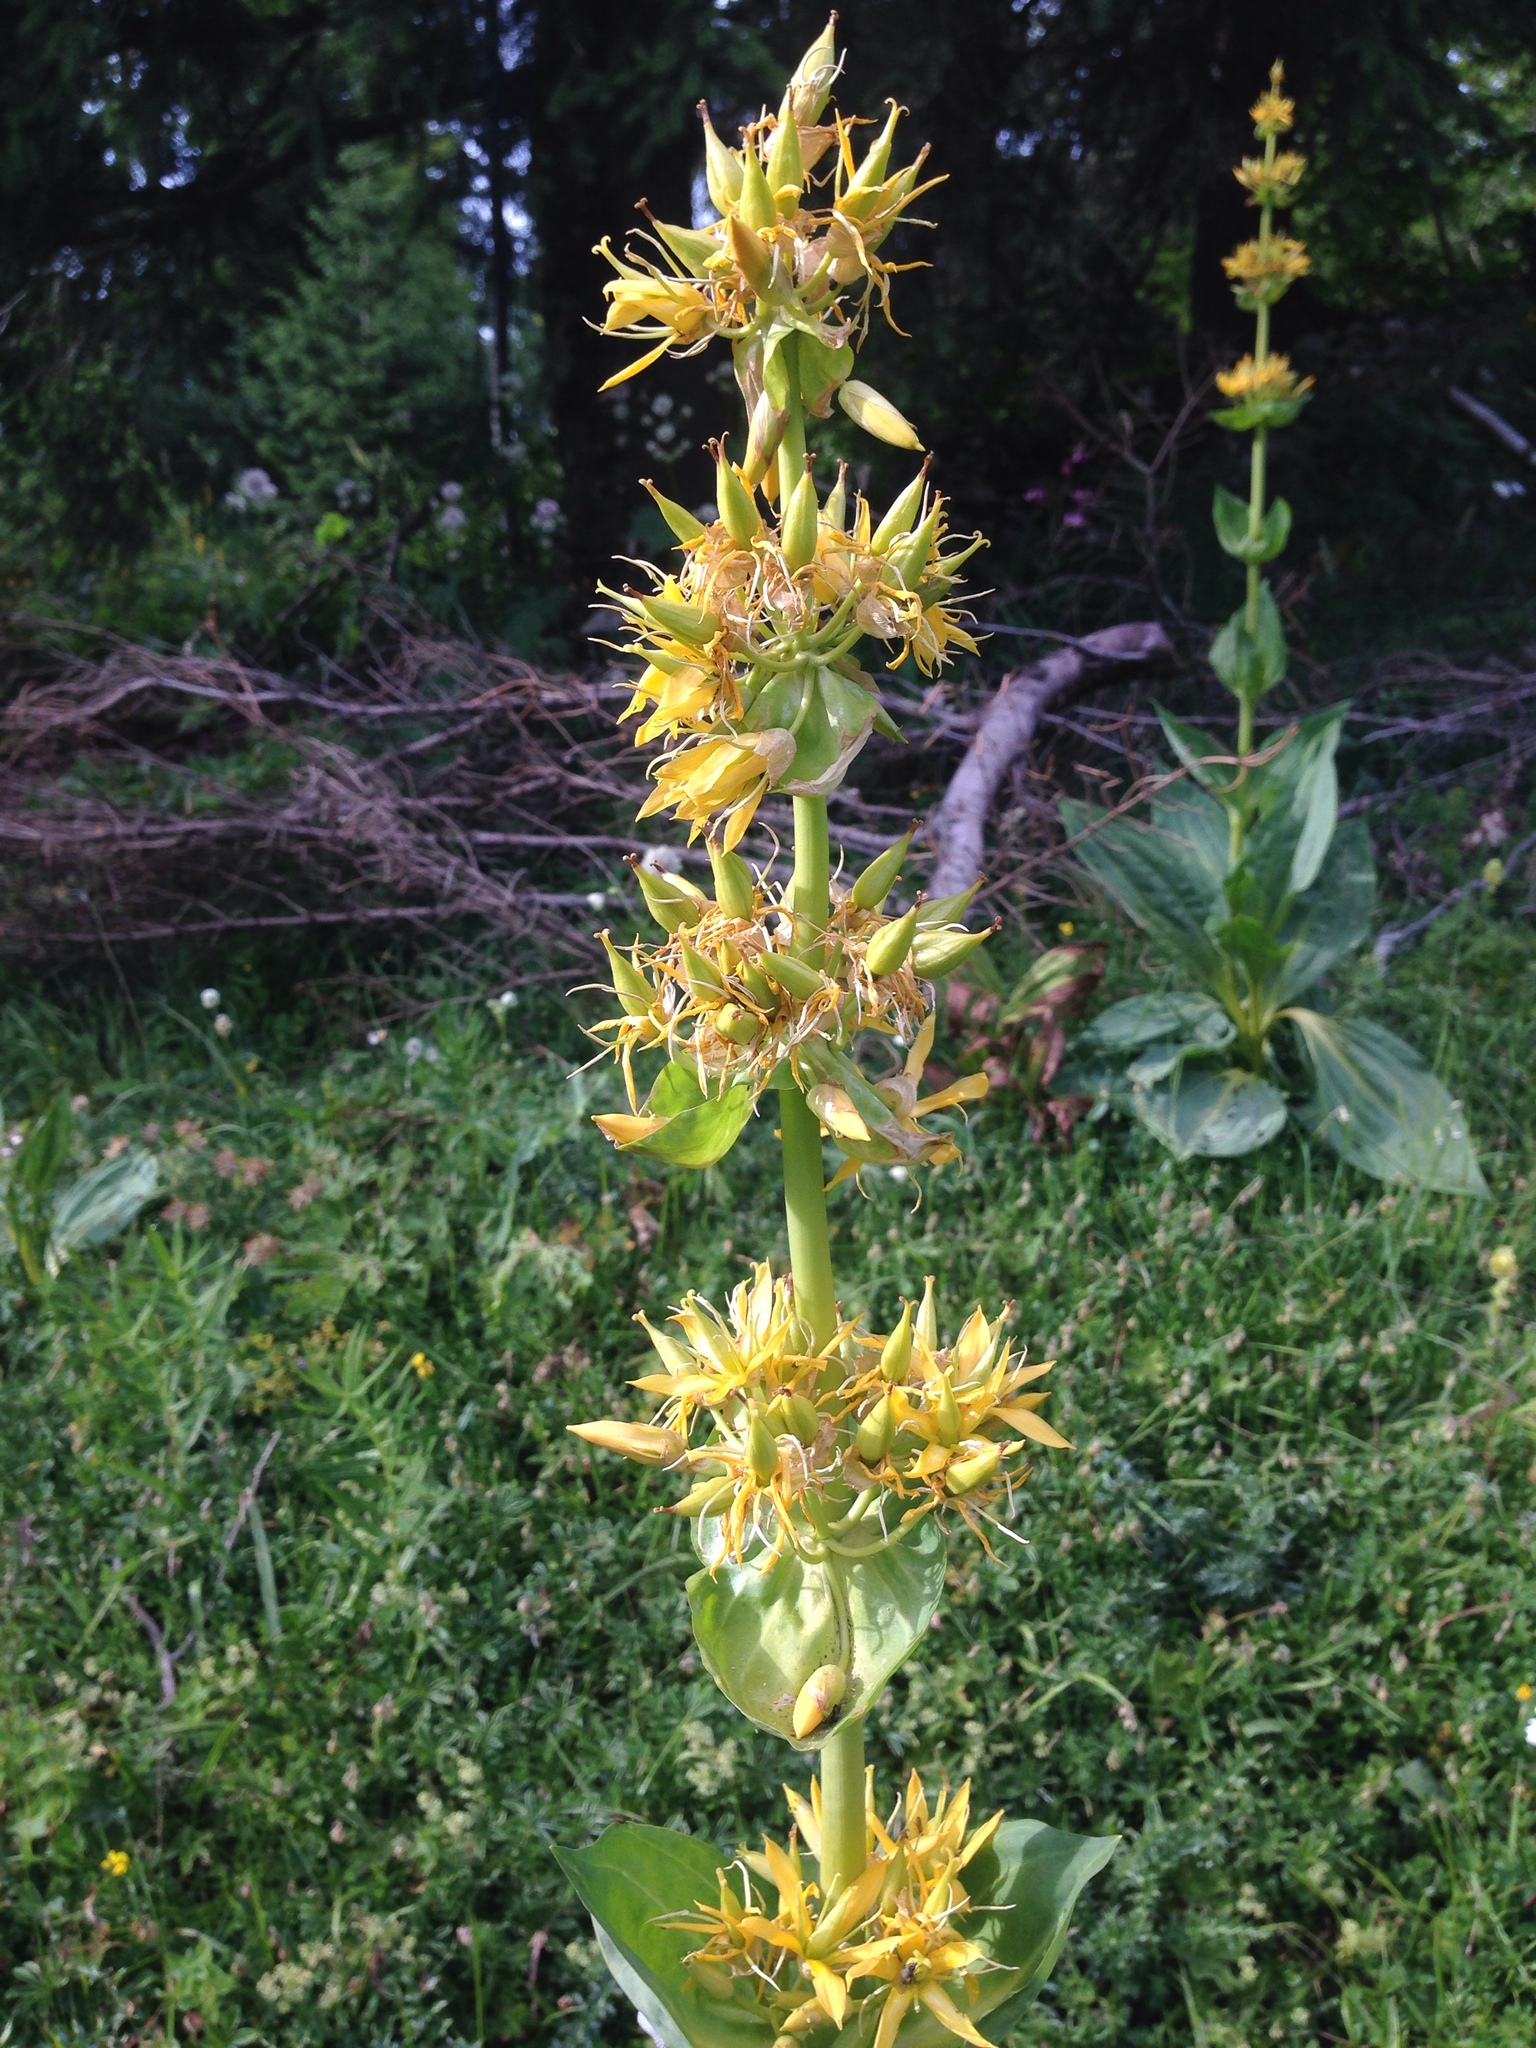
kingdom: Plantae
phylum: Tracheophyta
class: Magnoliopsida
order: Gentianales
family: Gentianaceae
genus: Gentiana
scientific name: Gentiana lutea
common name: Great yellow gentian
